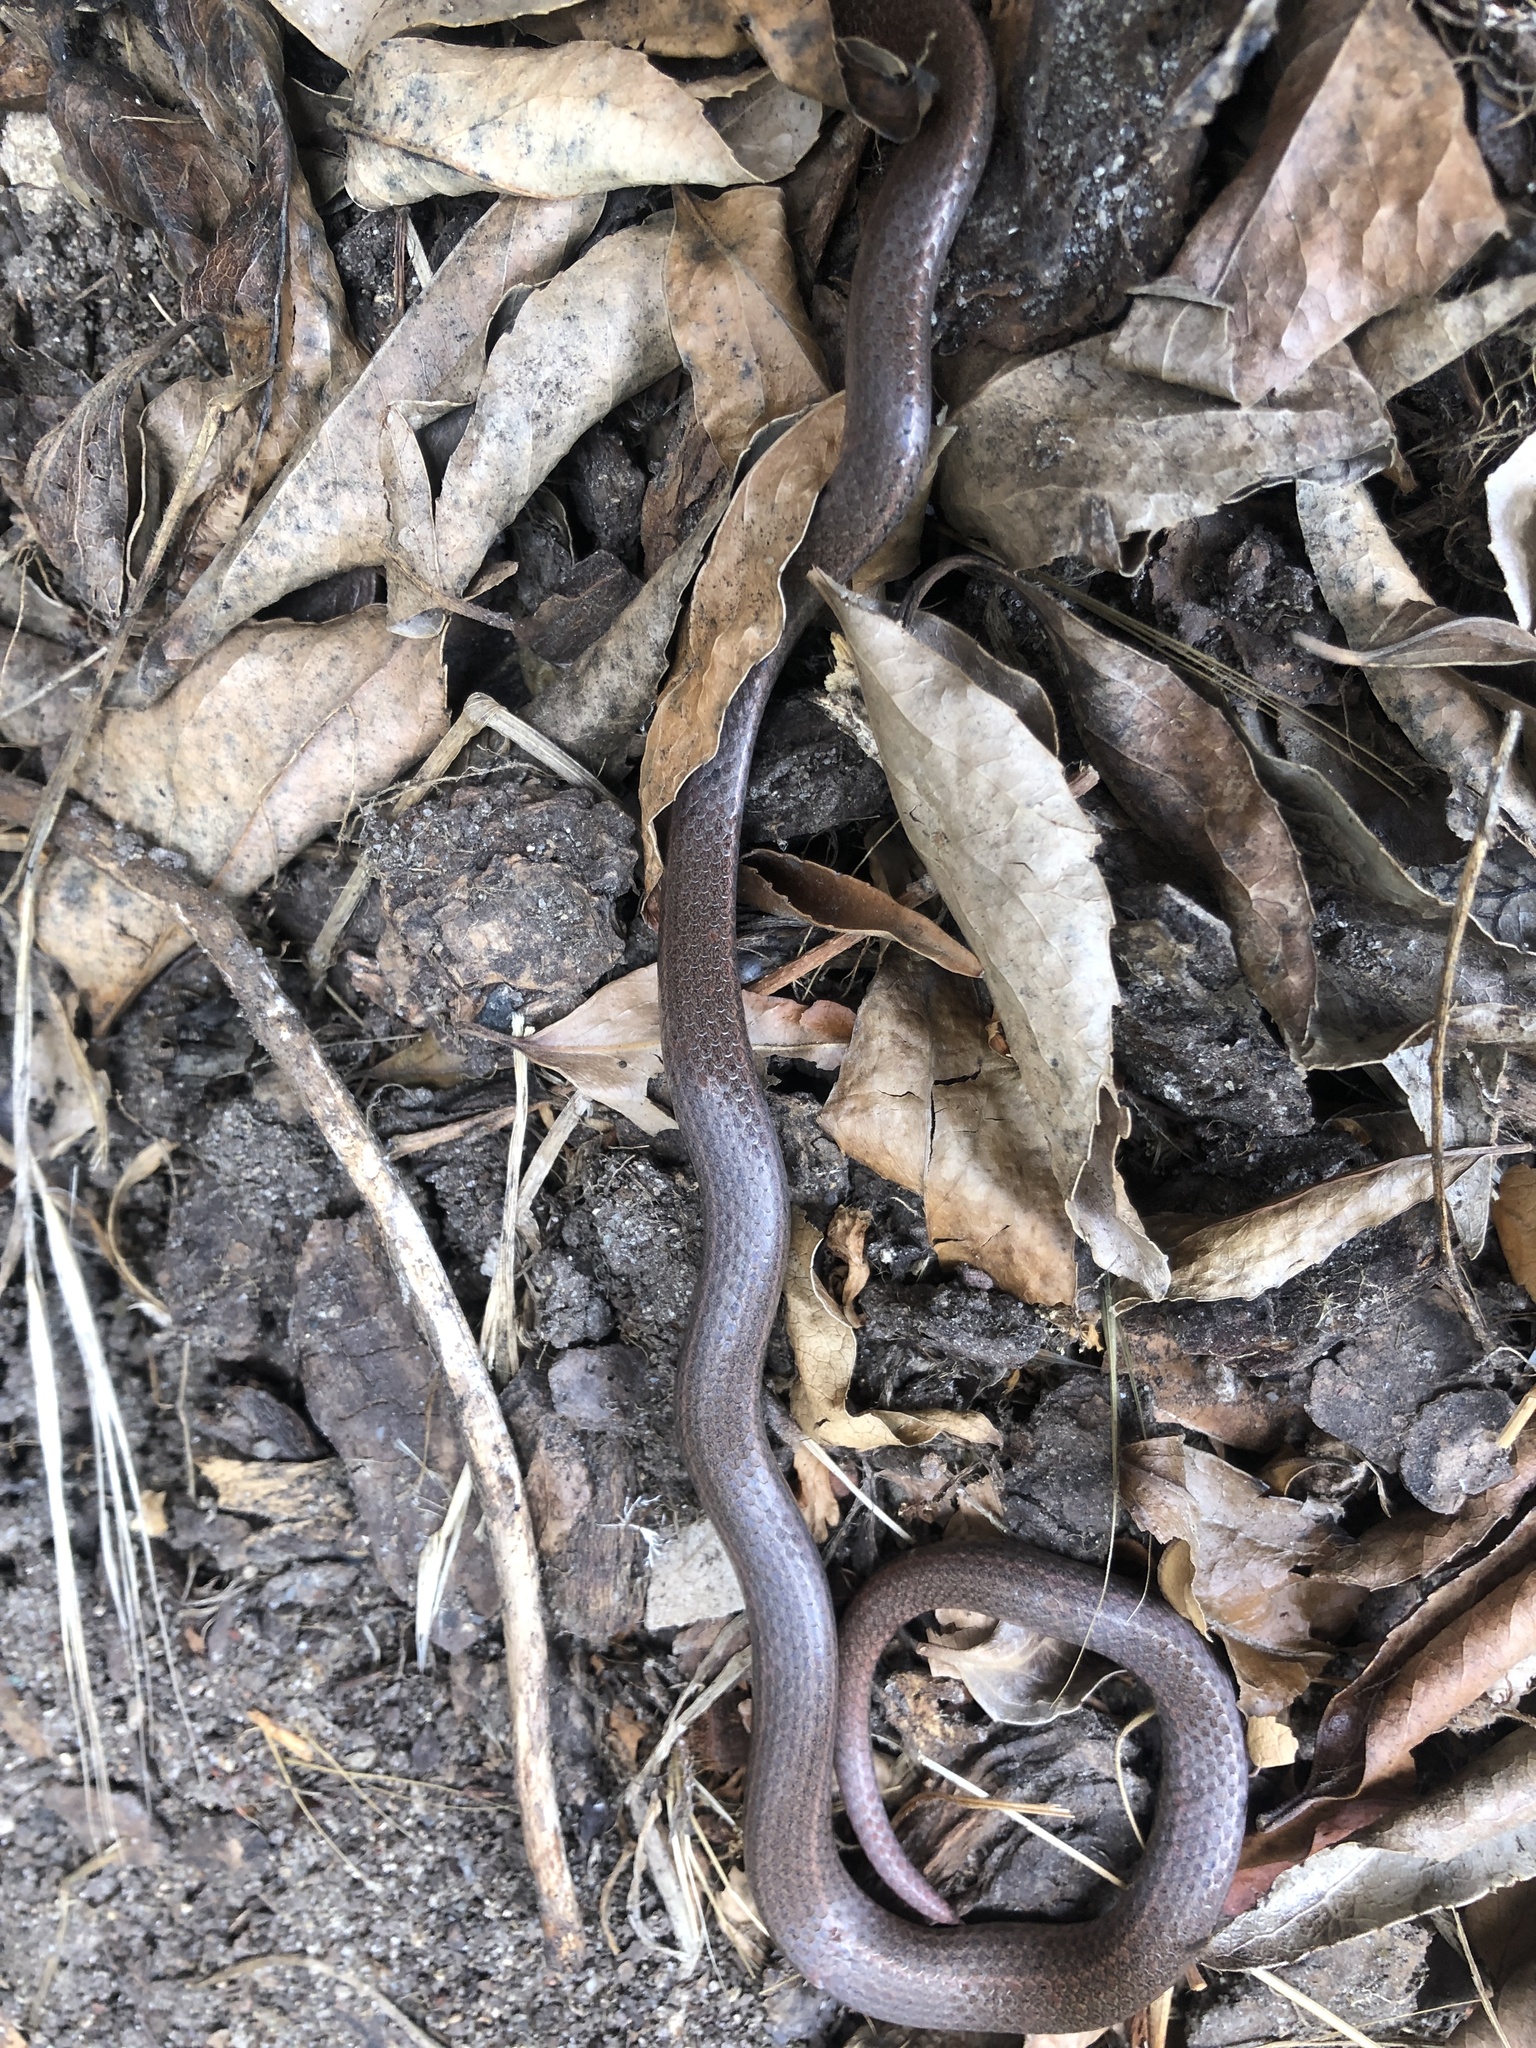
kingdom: Animalia
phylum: Chordata
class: Squamata
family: Colubridae
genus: Contia
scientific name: Contia tenuis
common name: Sharptail snake
